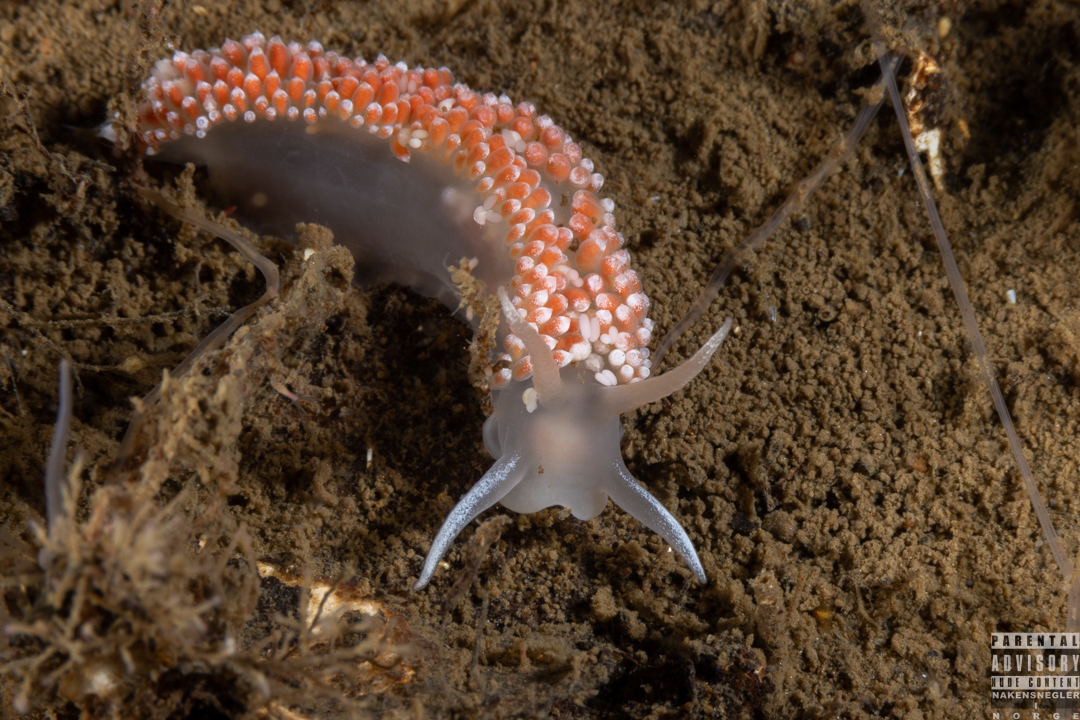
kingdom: Animalia
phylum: Mollusca
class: Gastropoda
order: Nudibranchia
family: Coryphellidae
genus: Coryphella
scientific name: Coryphella verrucosa
